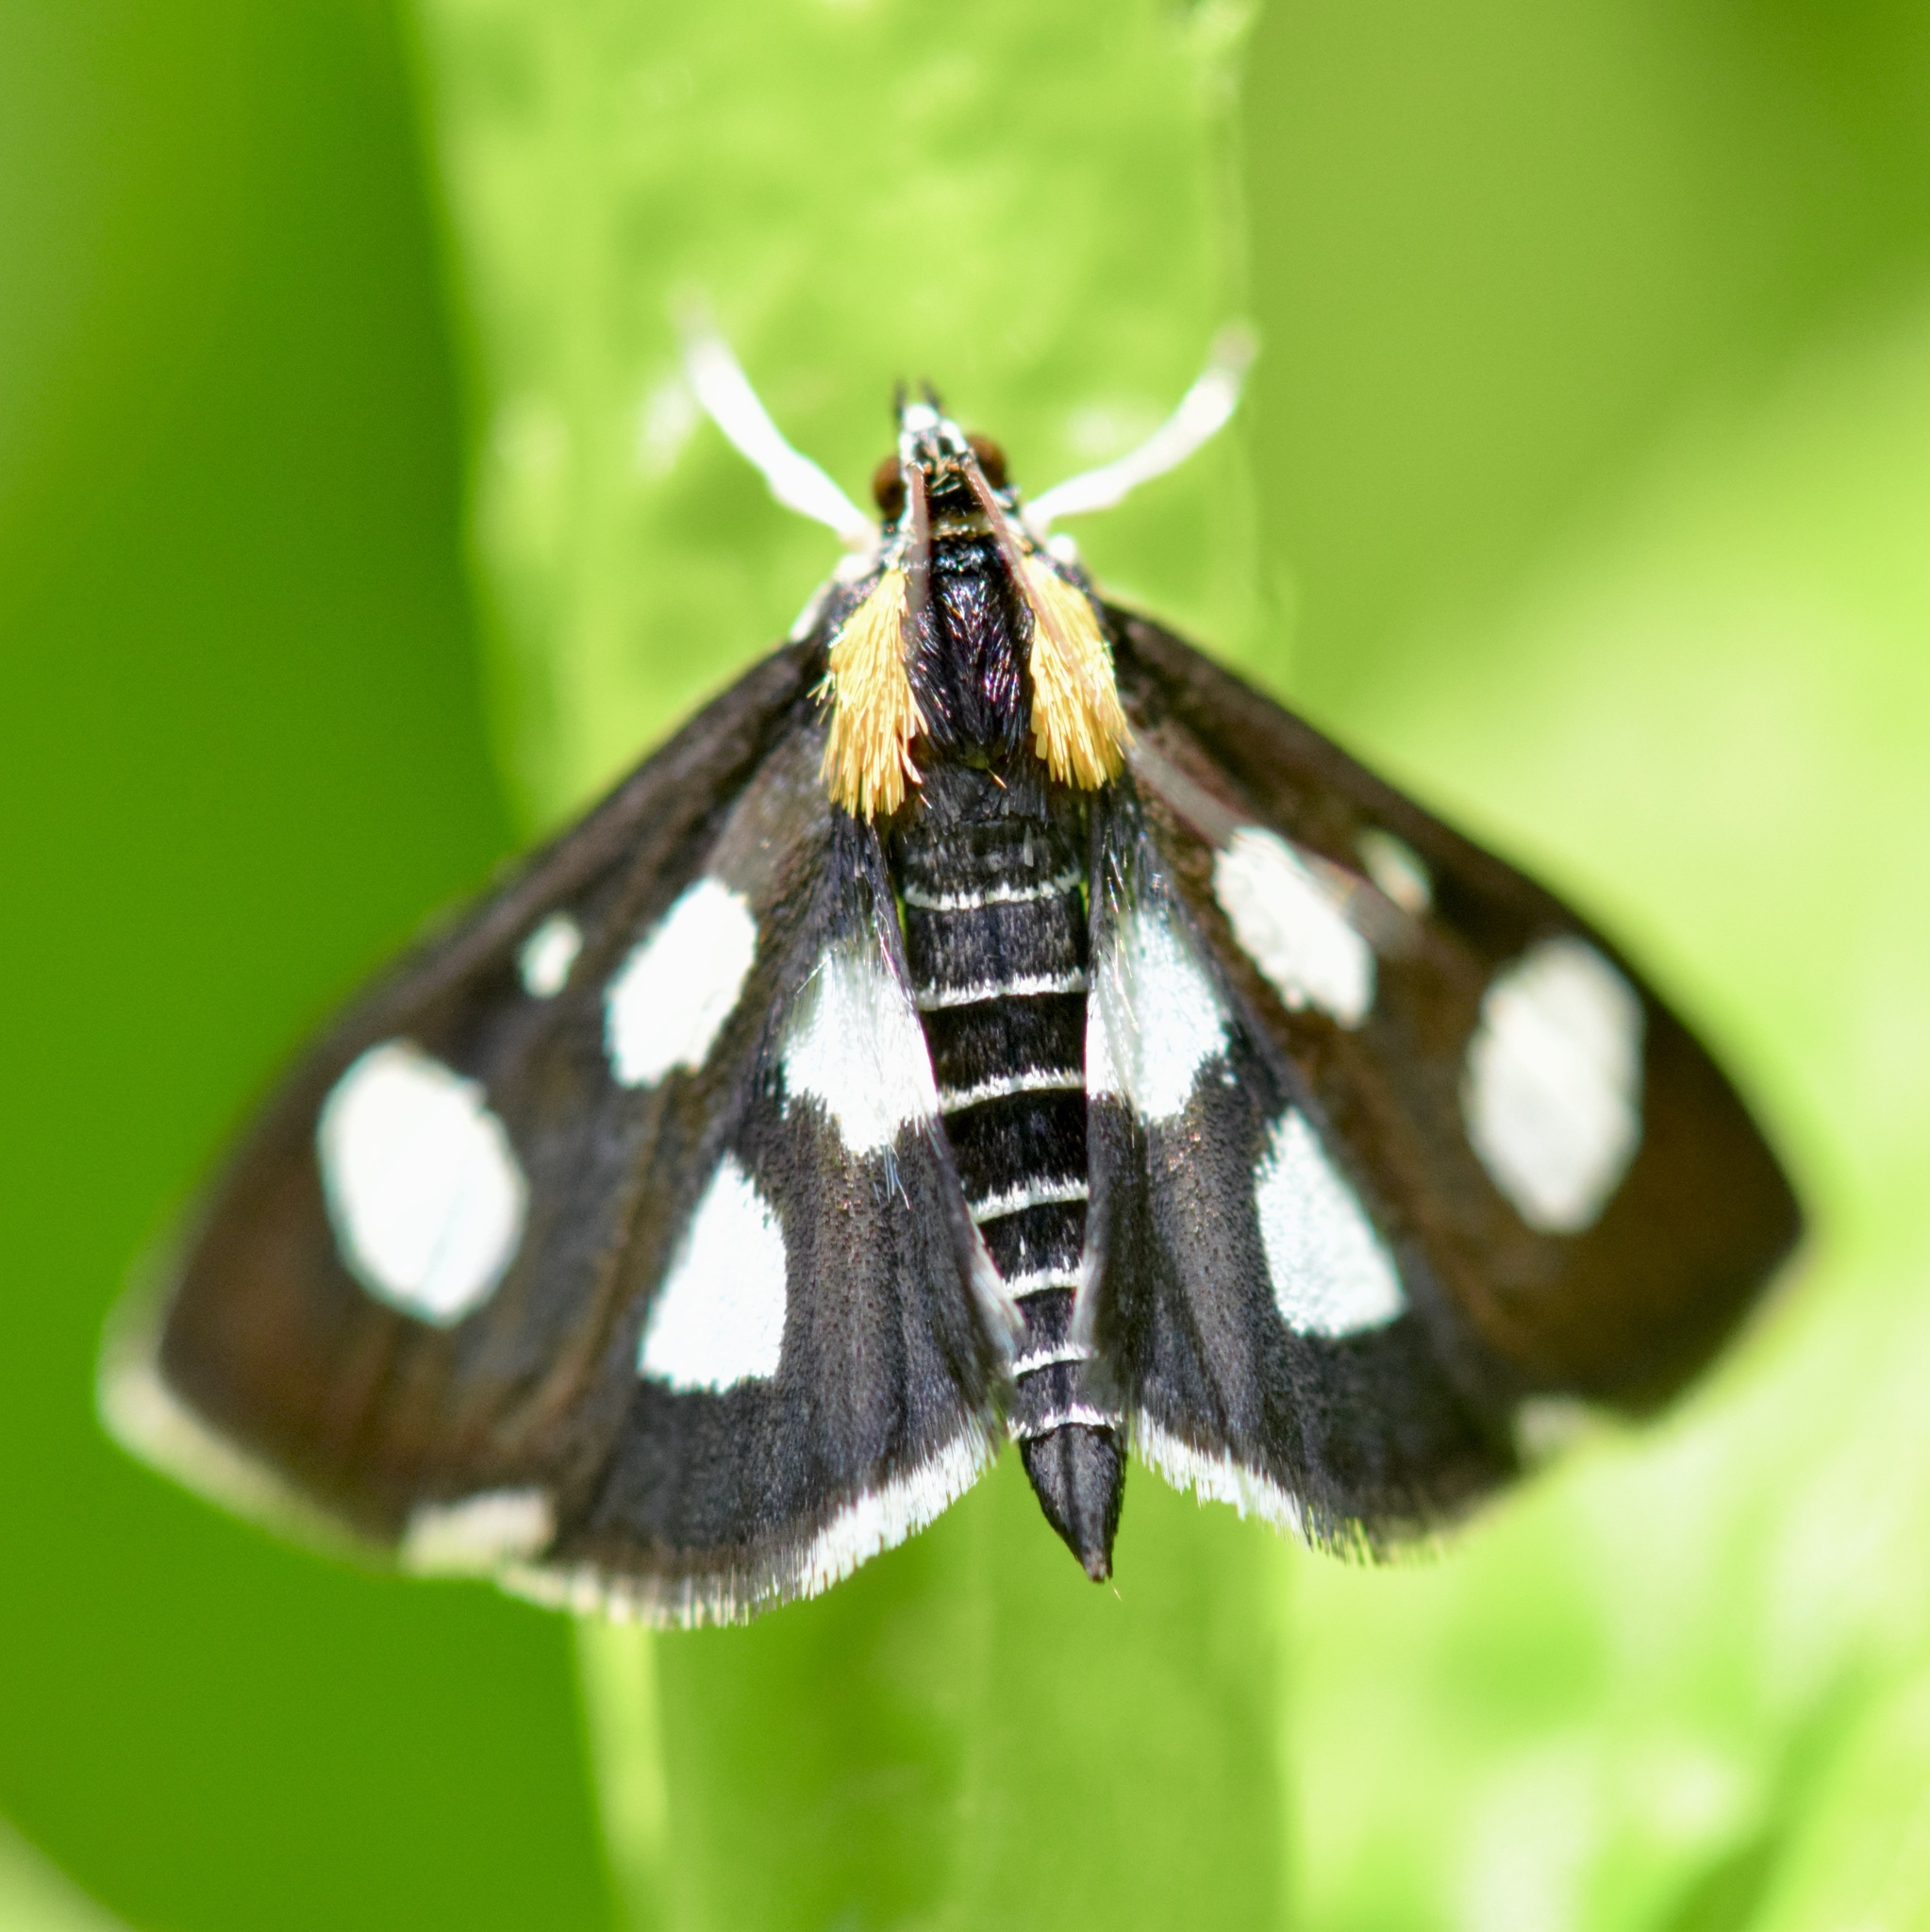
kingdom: Animalia
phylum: Arthropoda
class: Insecta
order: Lepidoptera
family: Crambidae
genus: Anania
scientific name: Anania funebris
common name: White-spotted sable moth
